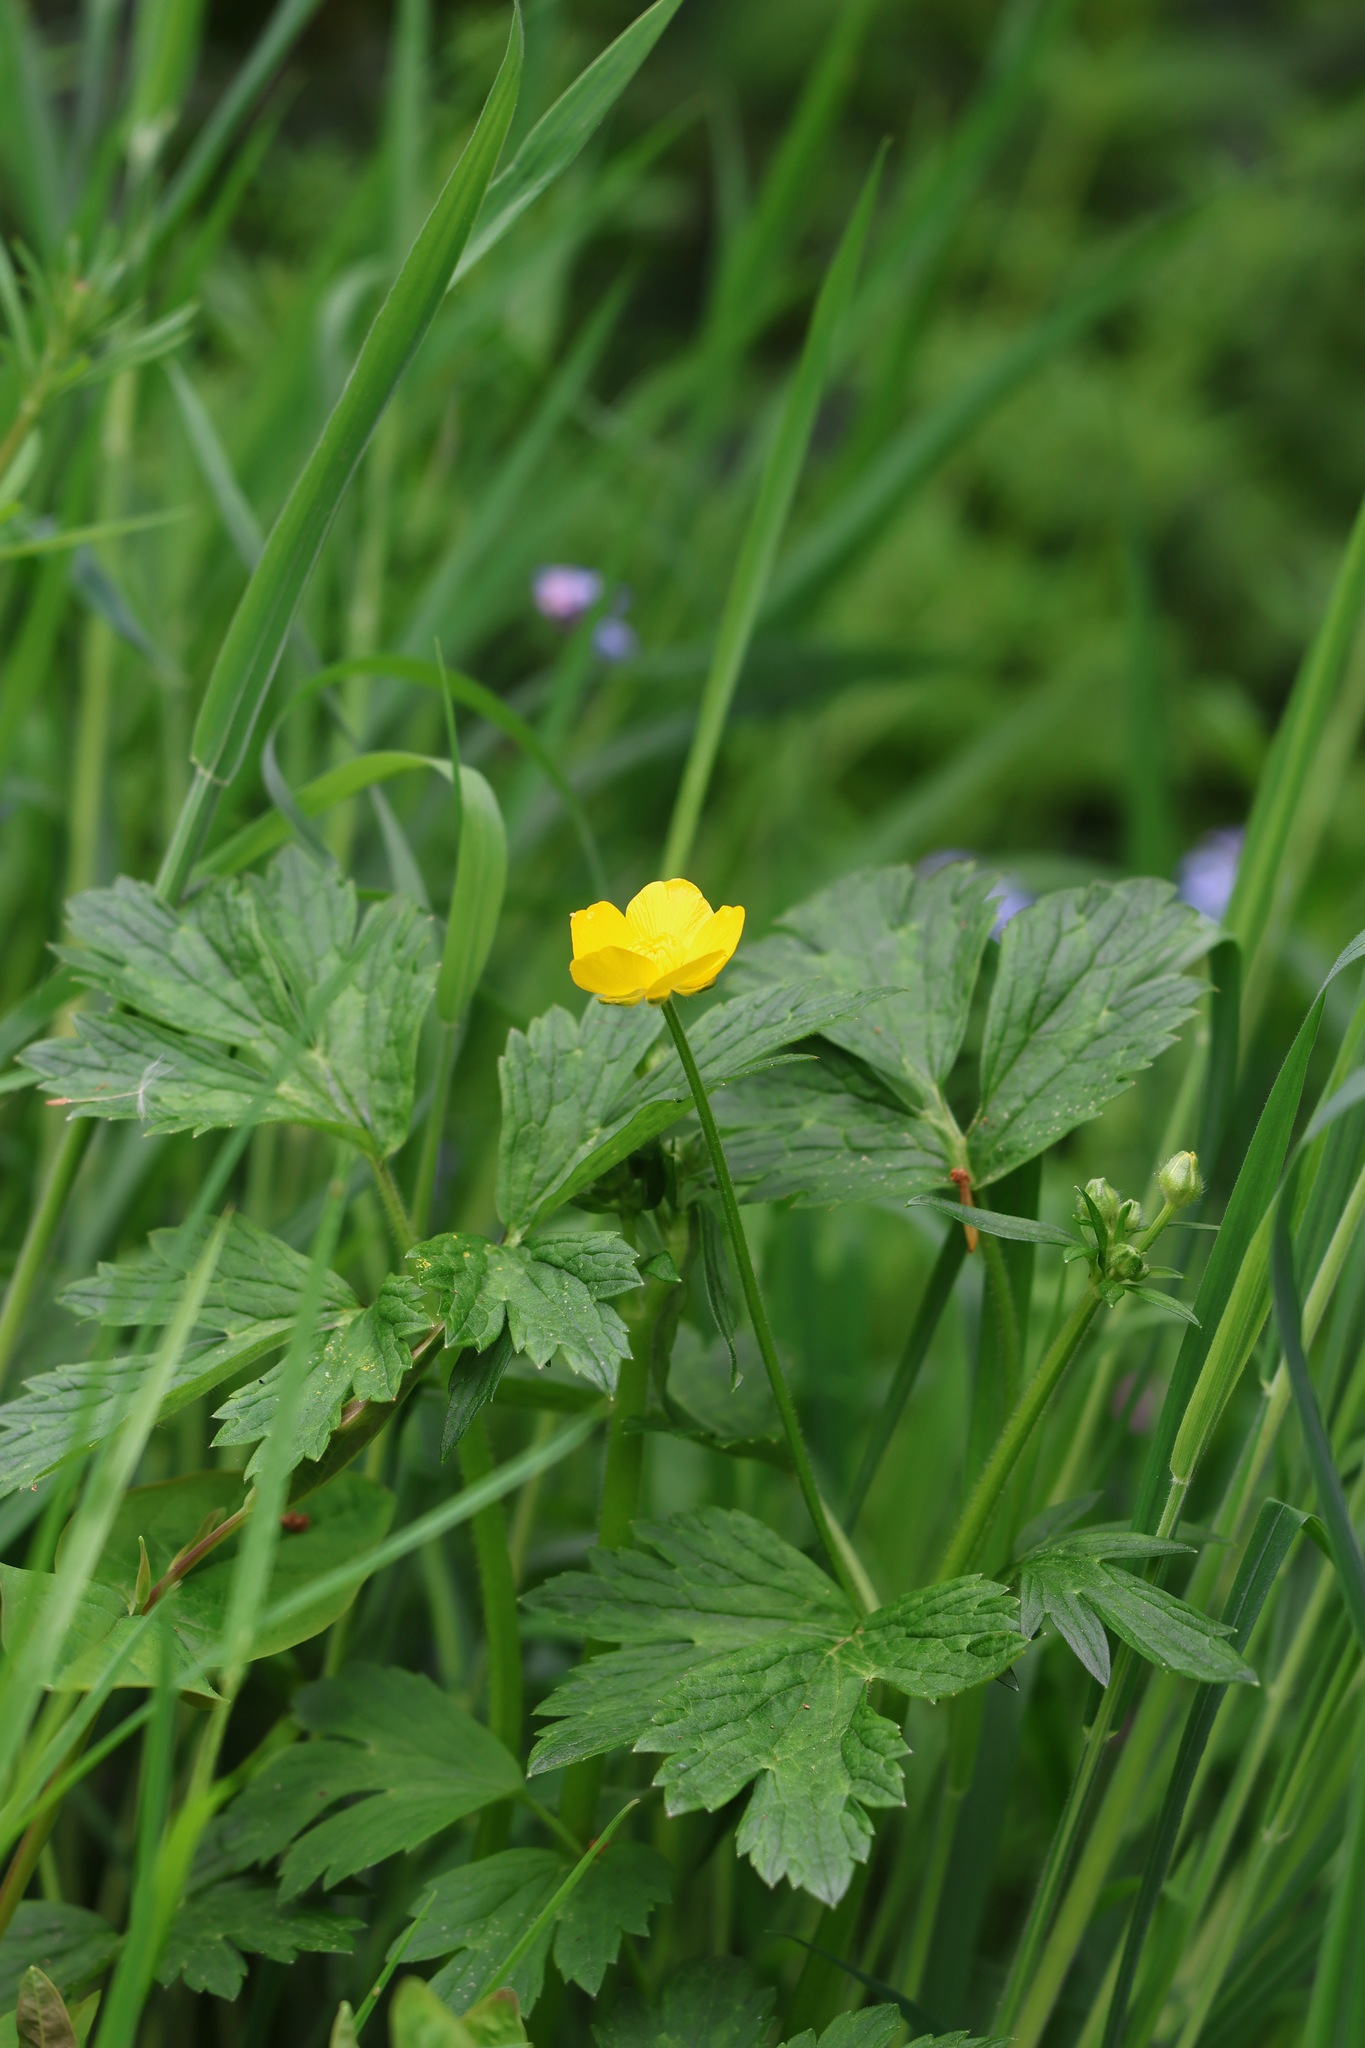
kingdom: Plantae
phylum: Tracheophyta
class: Magnoliopsida
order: Ranunculales
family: Ranunculaceae
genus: Ranunculus
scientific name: Ranunculus repens
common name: Creeping buttercup
